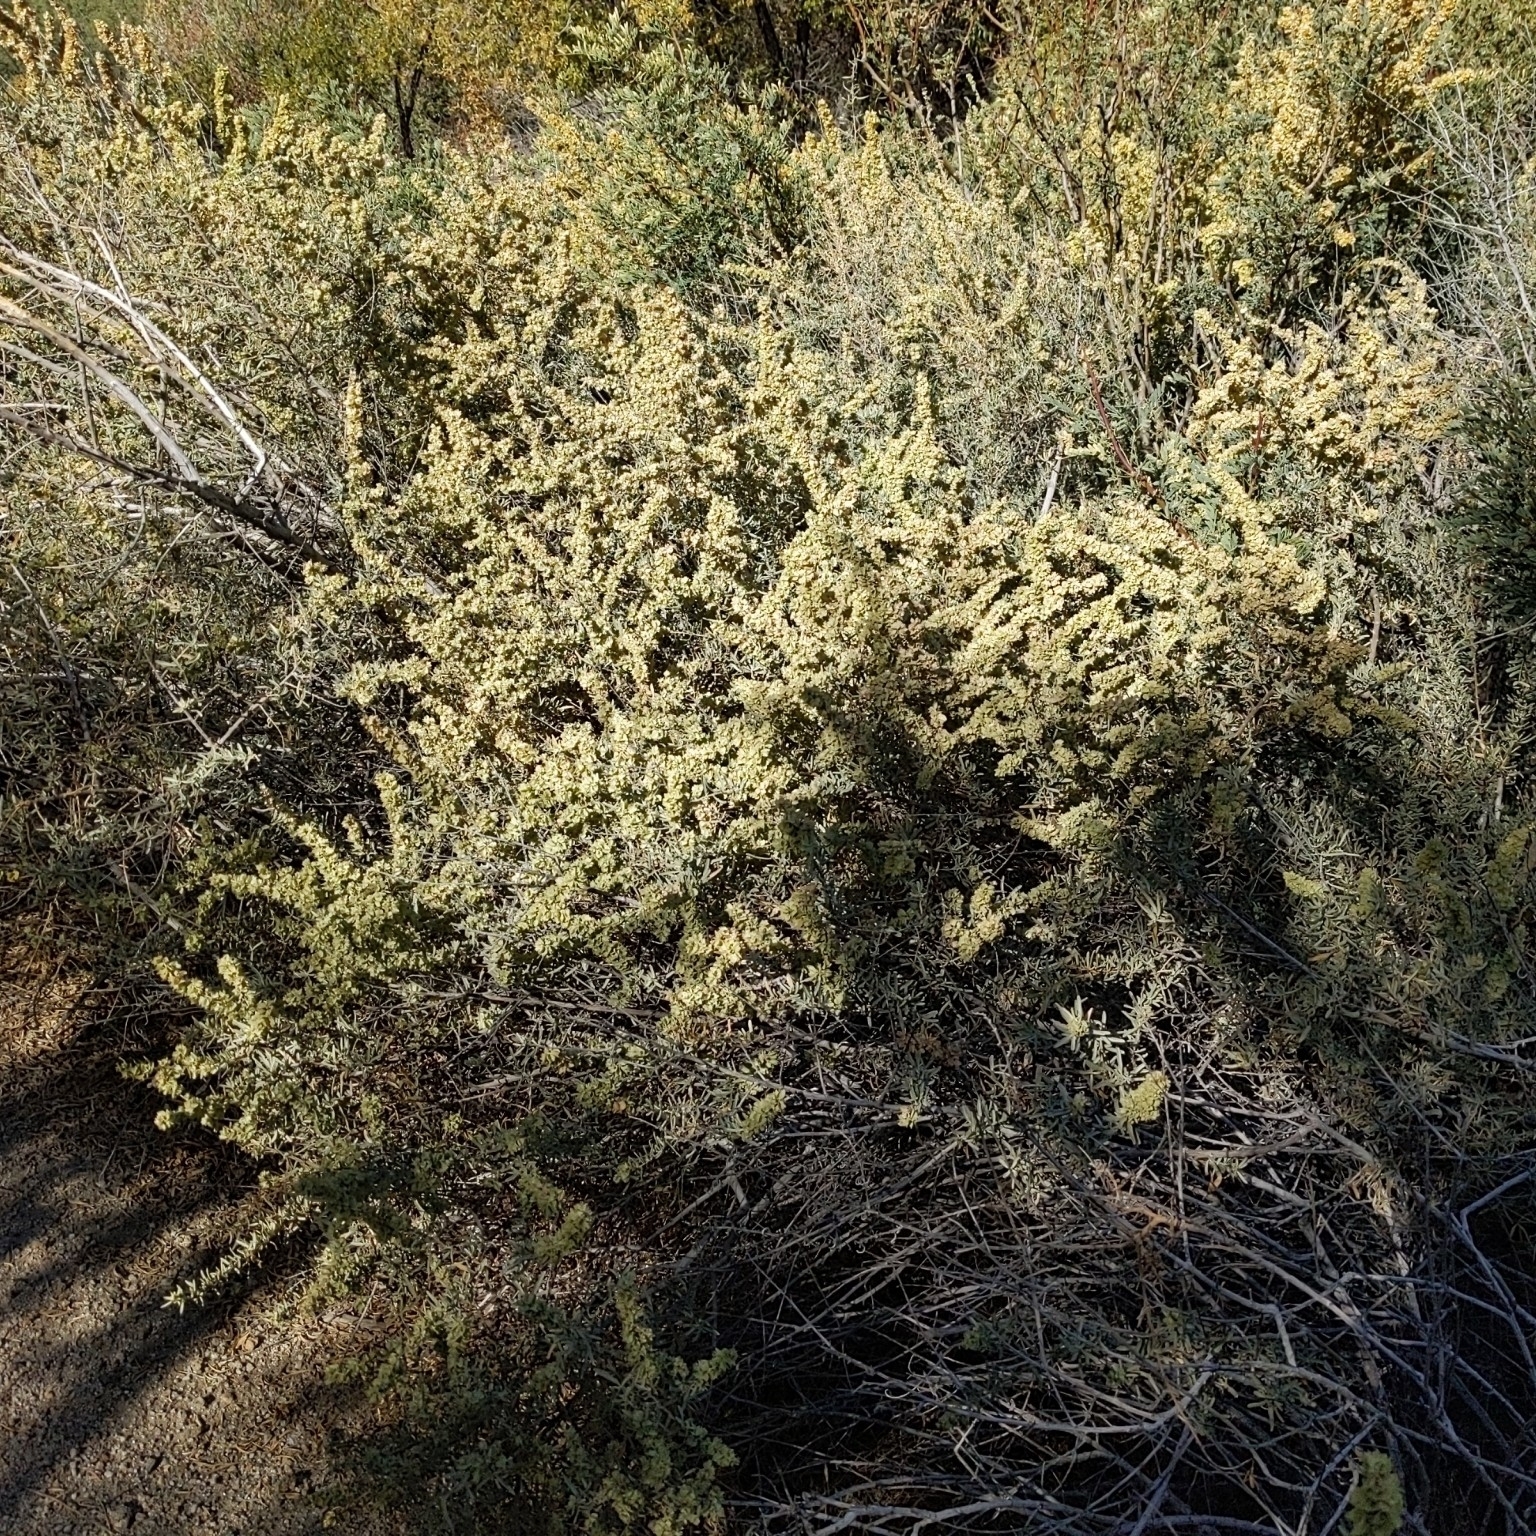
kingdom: Plantae
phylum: Tracheophyta
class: Magnoliopsida
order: Caryophyllales
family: Amaranthaceae
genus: Atriplex
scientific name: Atriplex canescens
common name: Four-wing saltbush
